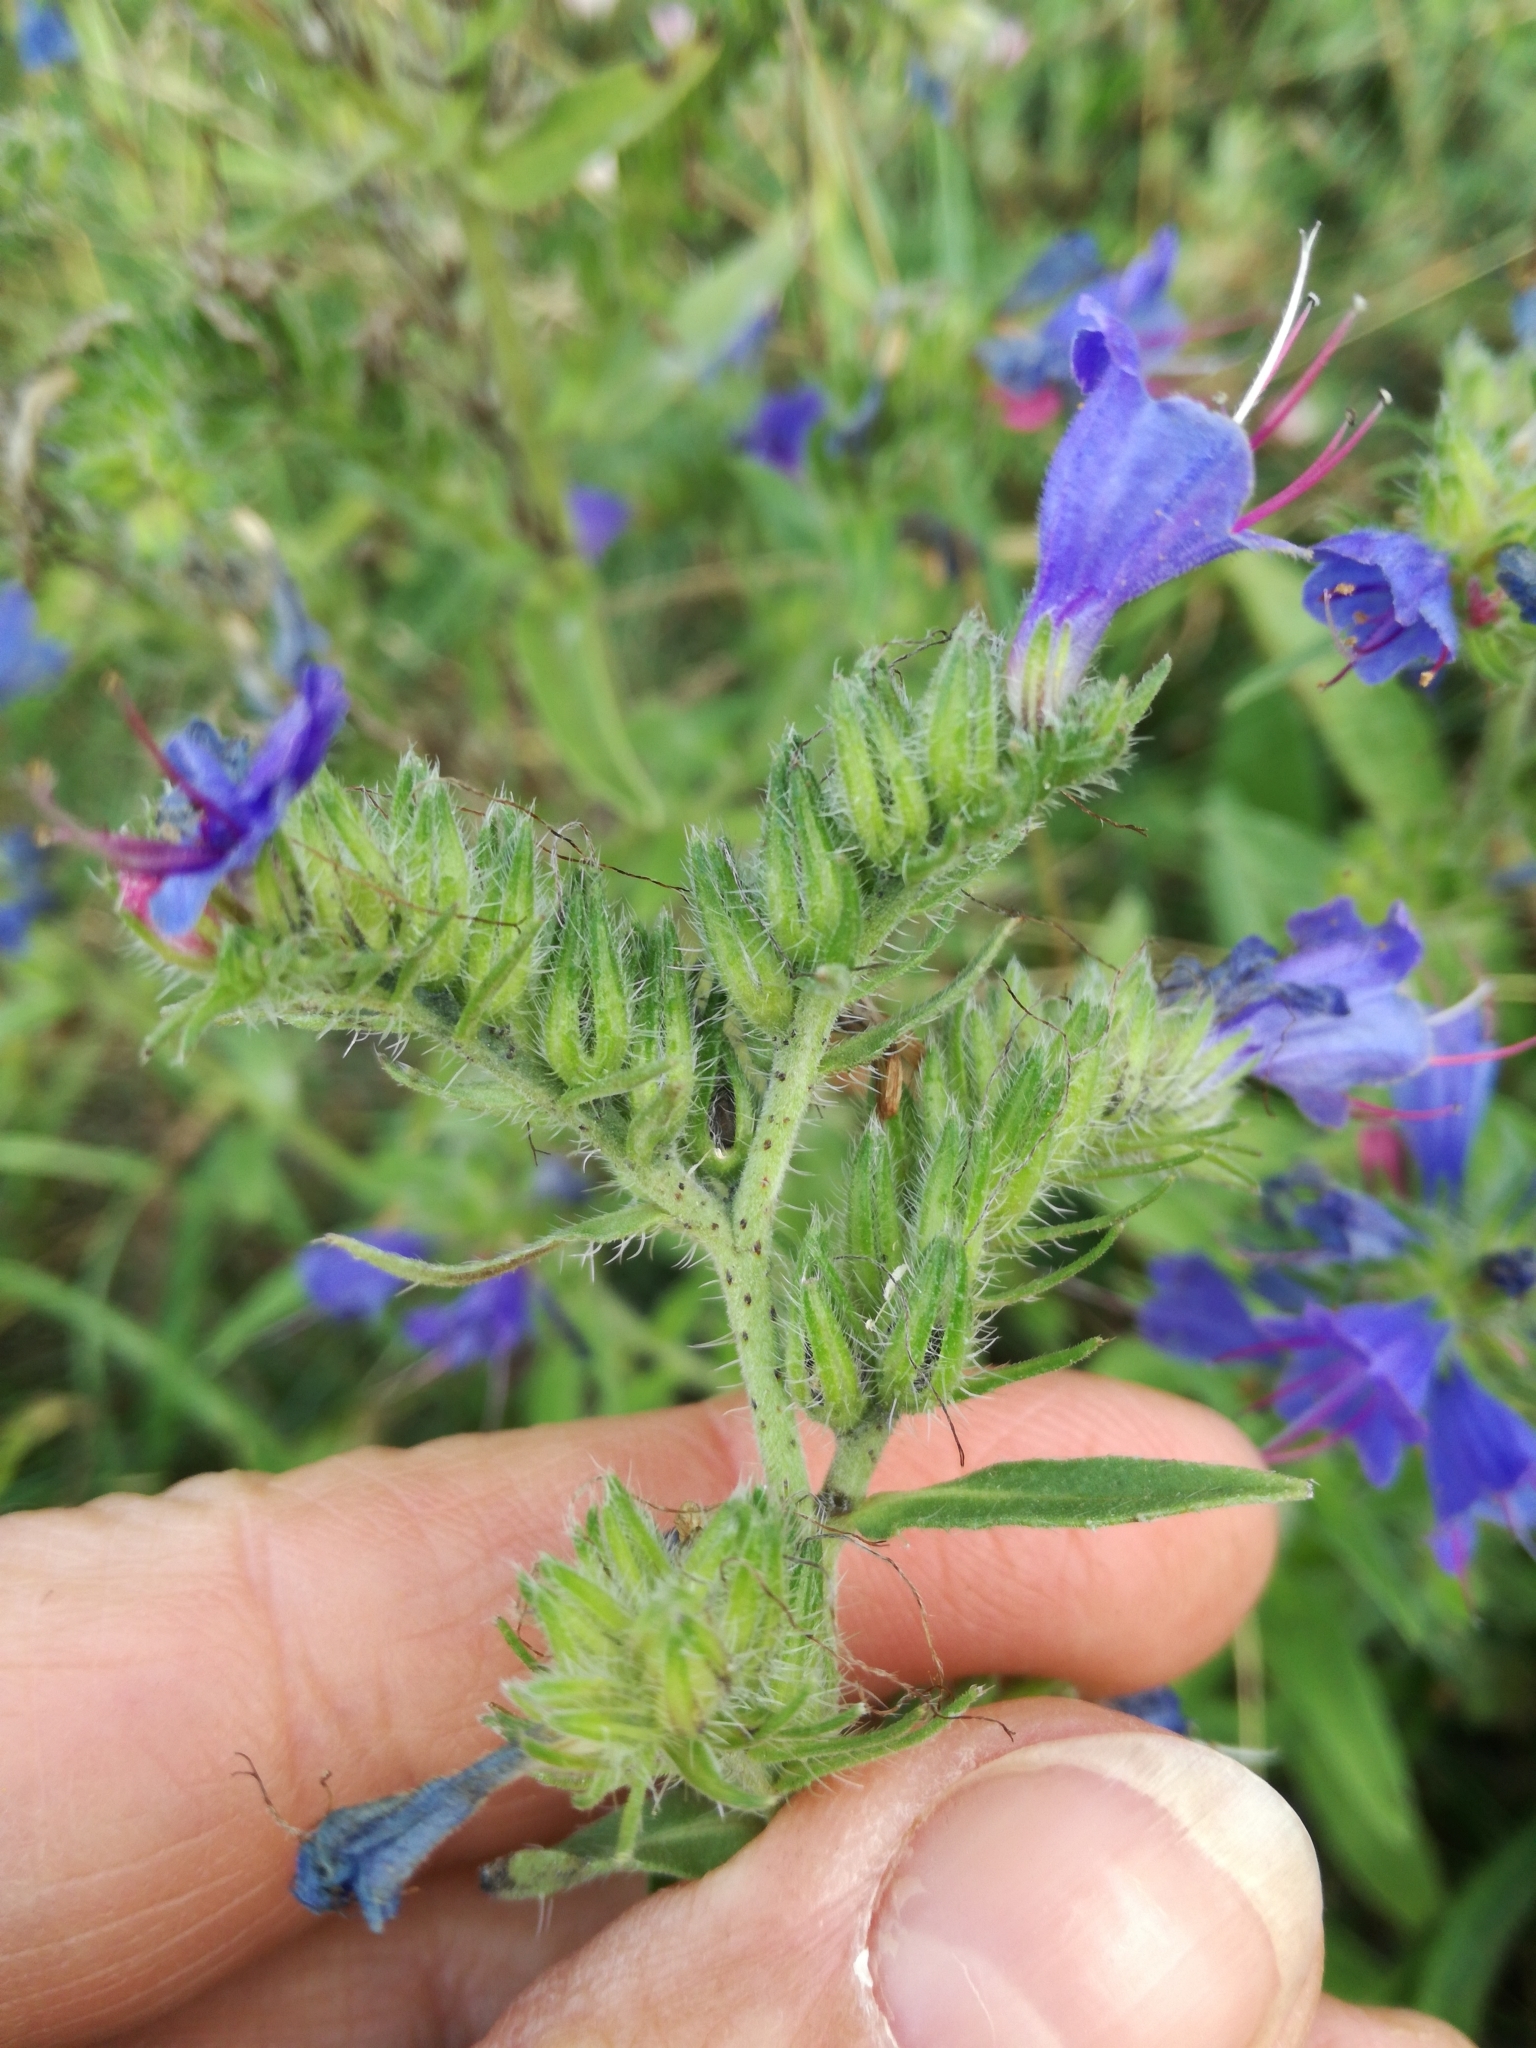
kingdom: Plantae
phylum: Tracheophyta
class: Magnoliopsida
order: Boraginales
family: Boraginaceae
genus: Echium
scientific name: Echium vulgare
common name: Common viper's bugloss
